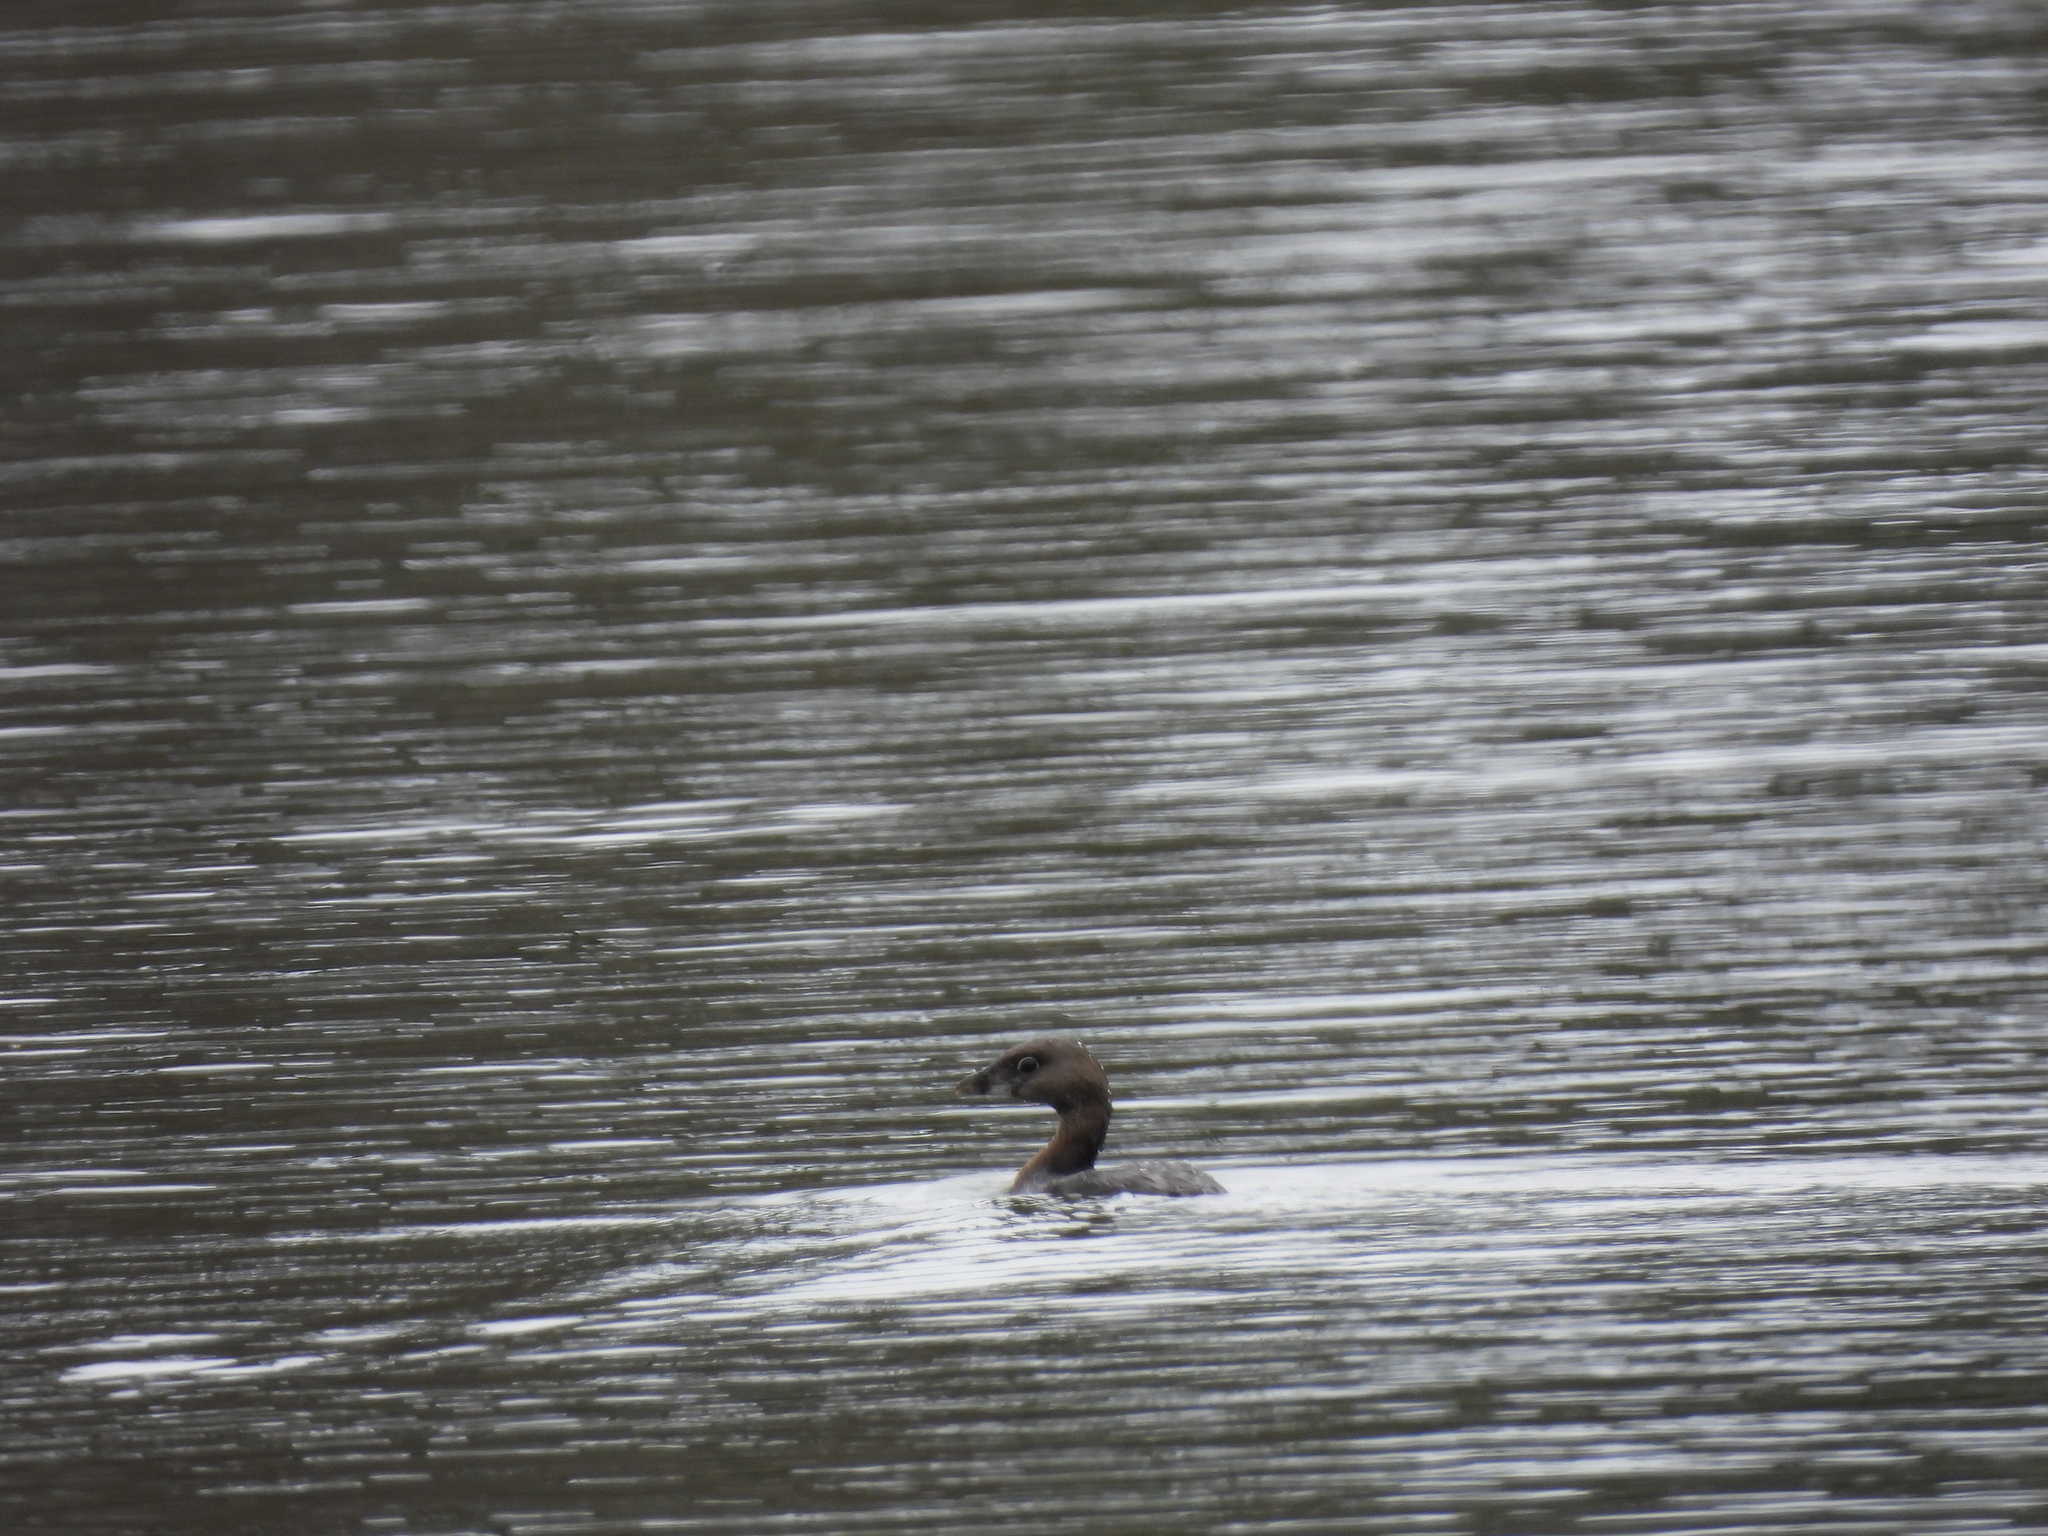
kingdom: Animalia
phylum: Chordata
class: Aves
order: Podicipediformes
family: Podicipedidae
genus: Podilymbus
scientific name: Podilymbus podiceps
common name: Pied-billed grebe
